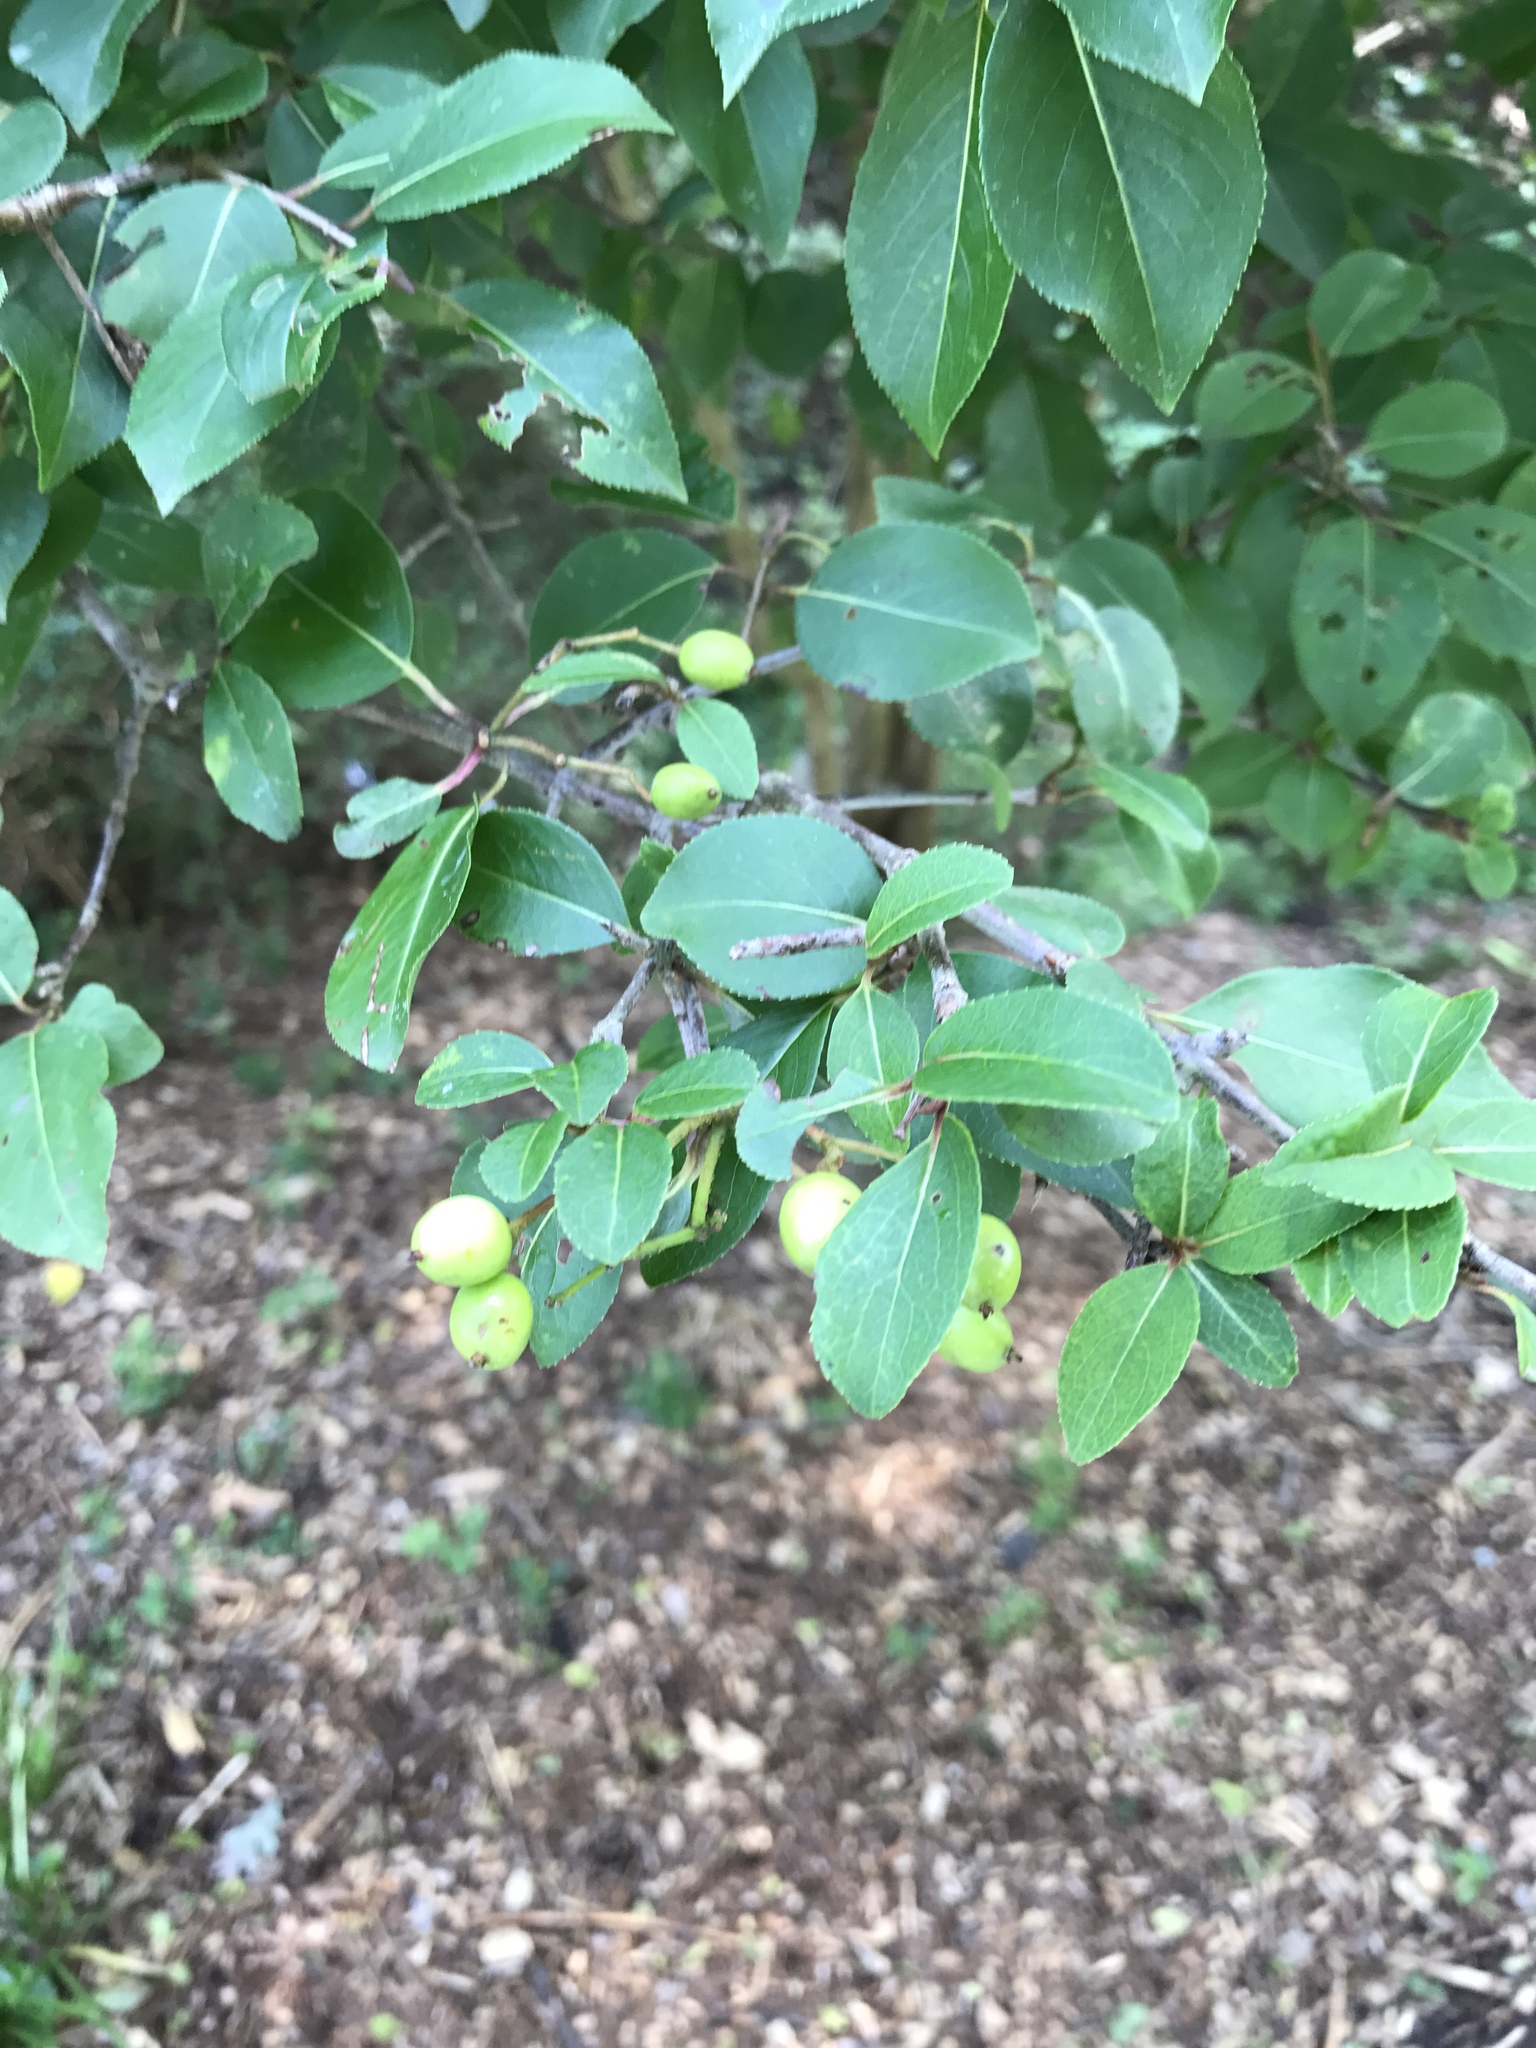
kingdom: Plantae
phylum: Tracheophyta
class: Magnoliopsida
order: Dipsacales
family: Viburnaceae
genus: Viburnum
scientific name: Viburnum prunifolium
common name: Black haw
